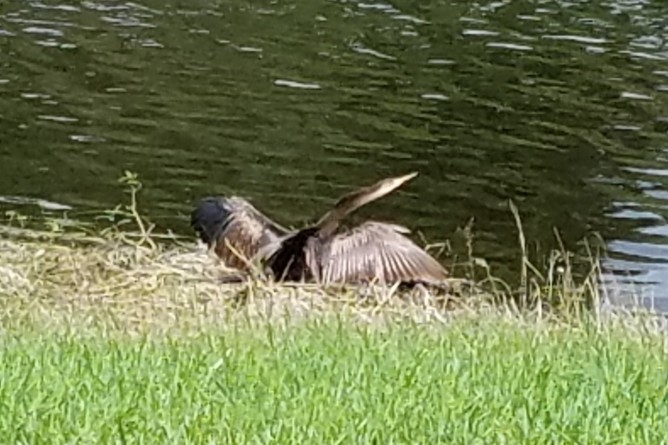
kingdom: Animalia
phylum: Chordata
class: Aves
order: Suliformes
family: Anhingidae
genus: Anhinga
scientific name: Anhinga anhinga
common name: Anhinga
